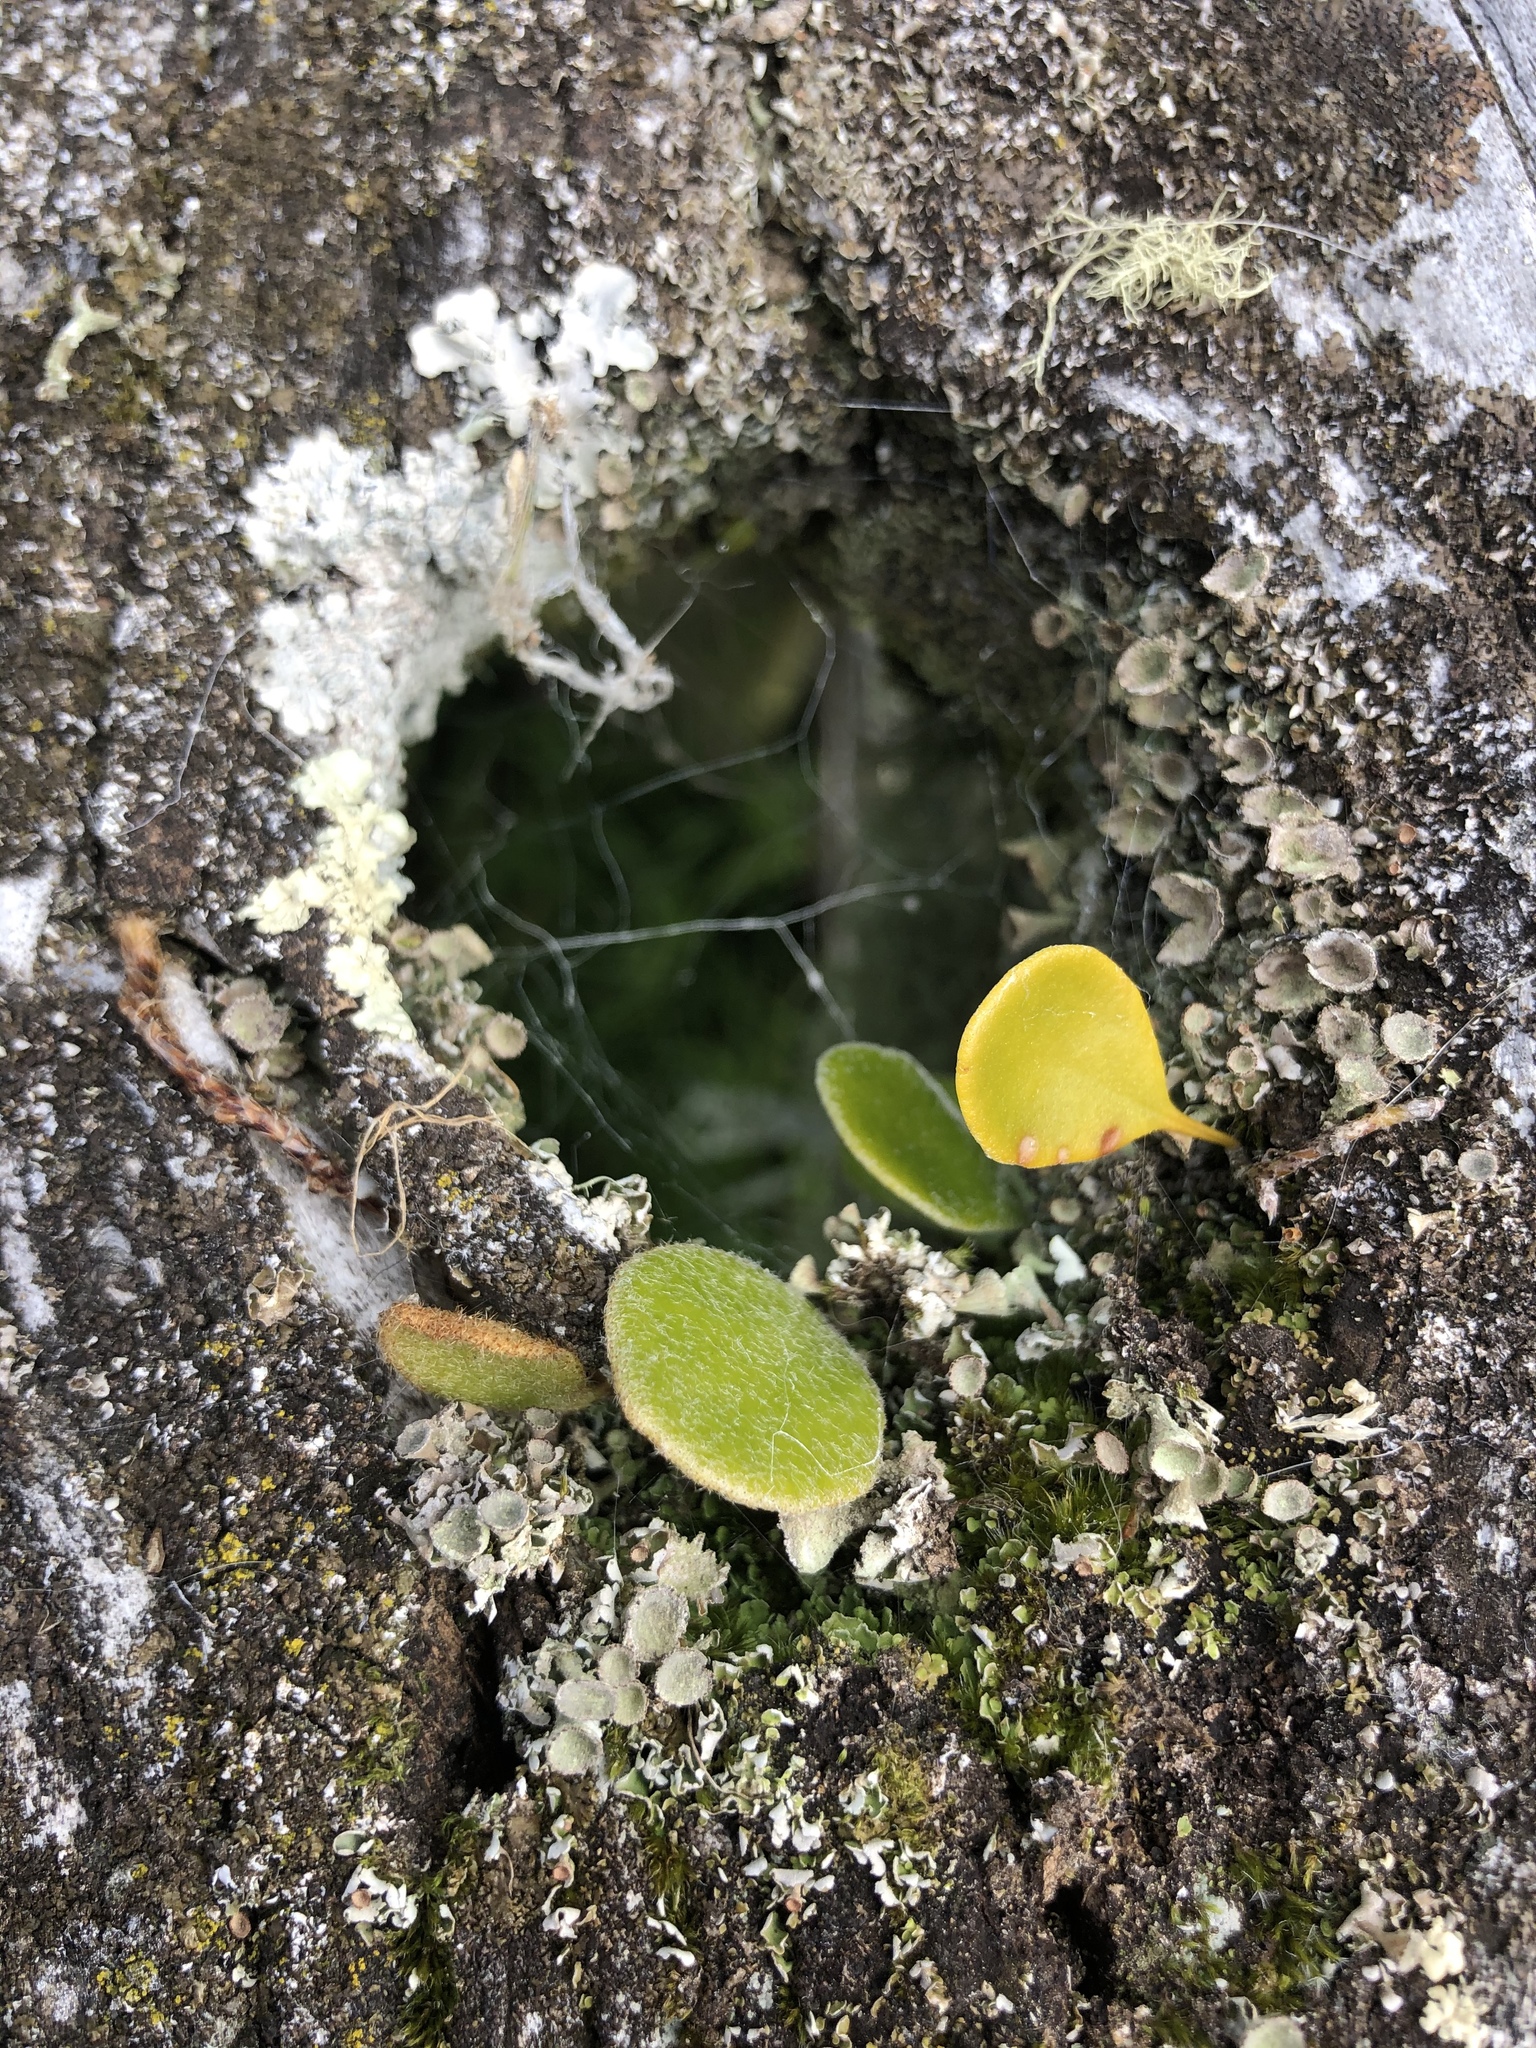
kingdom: Plantae
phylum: Tracheophyta
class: Polypodiopsida
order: Polypodiales
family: Polypodiaceae
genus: Pyrrosia
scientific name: Pyrrosia eleagnifolia
